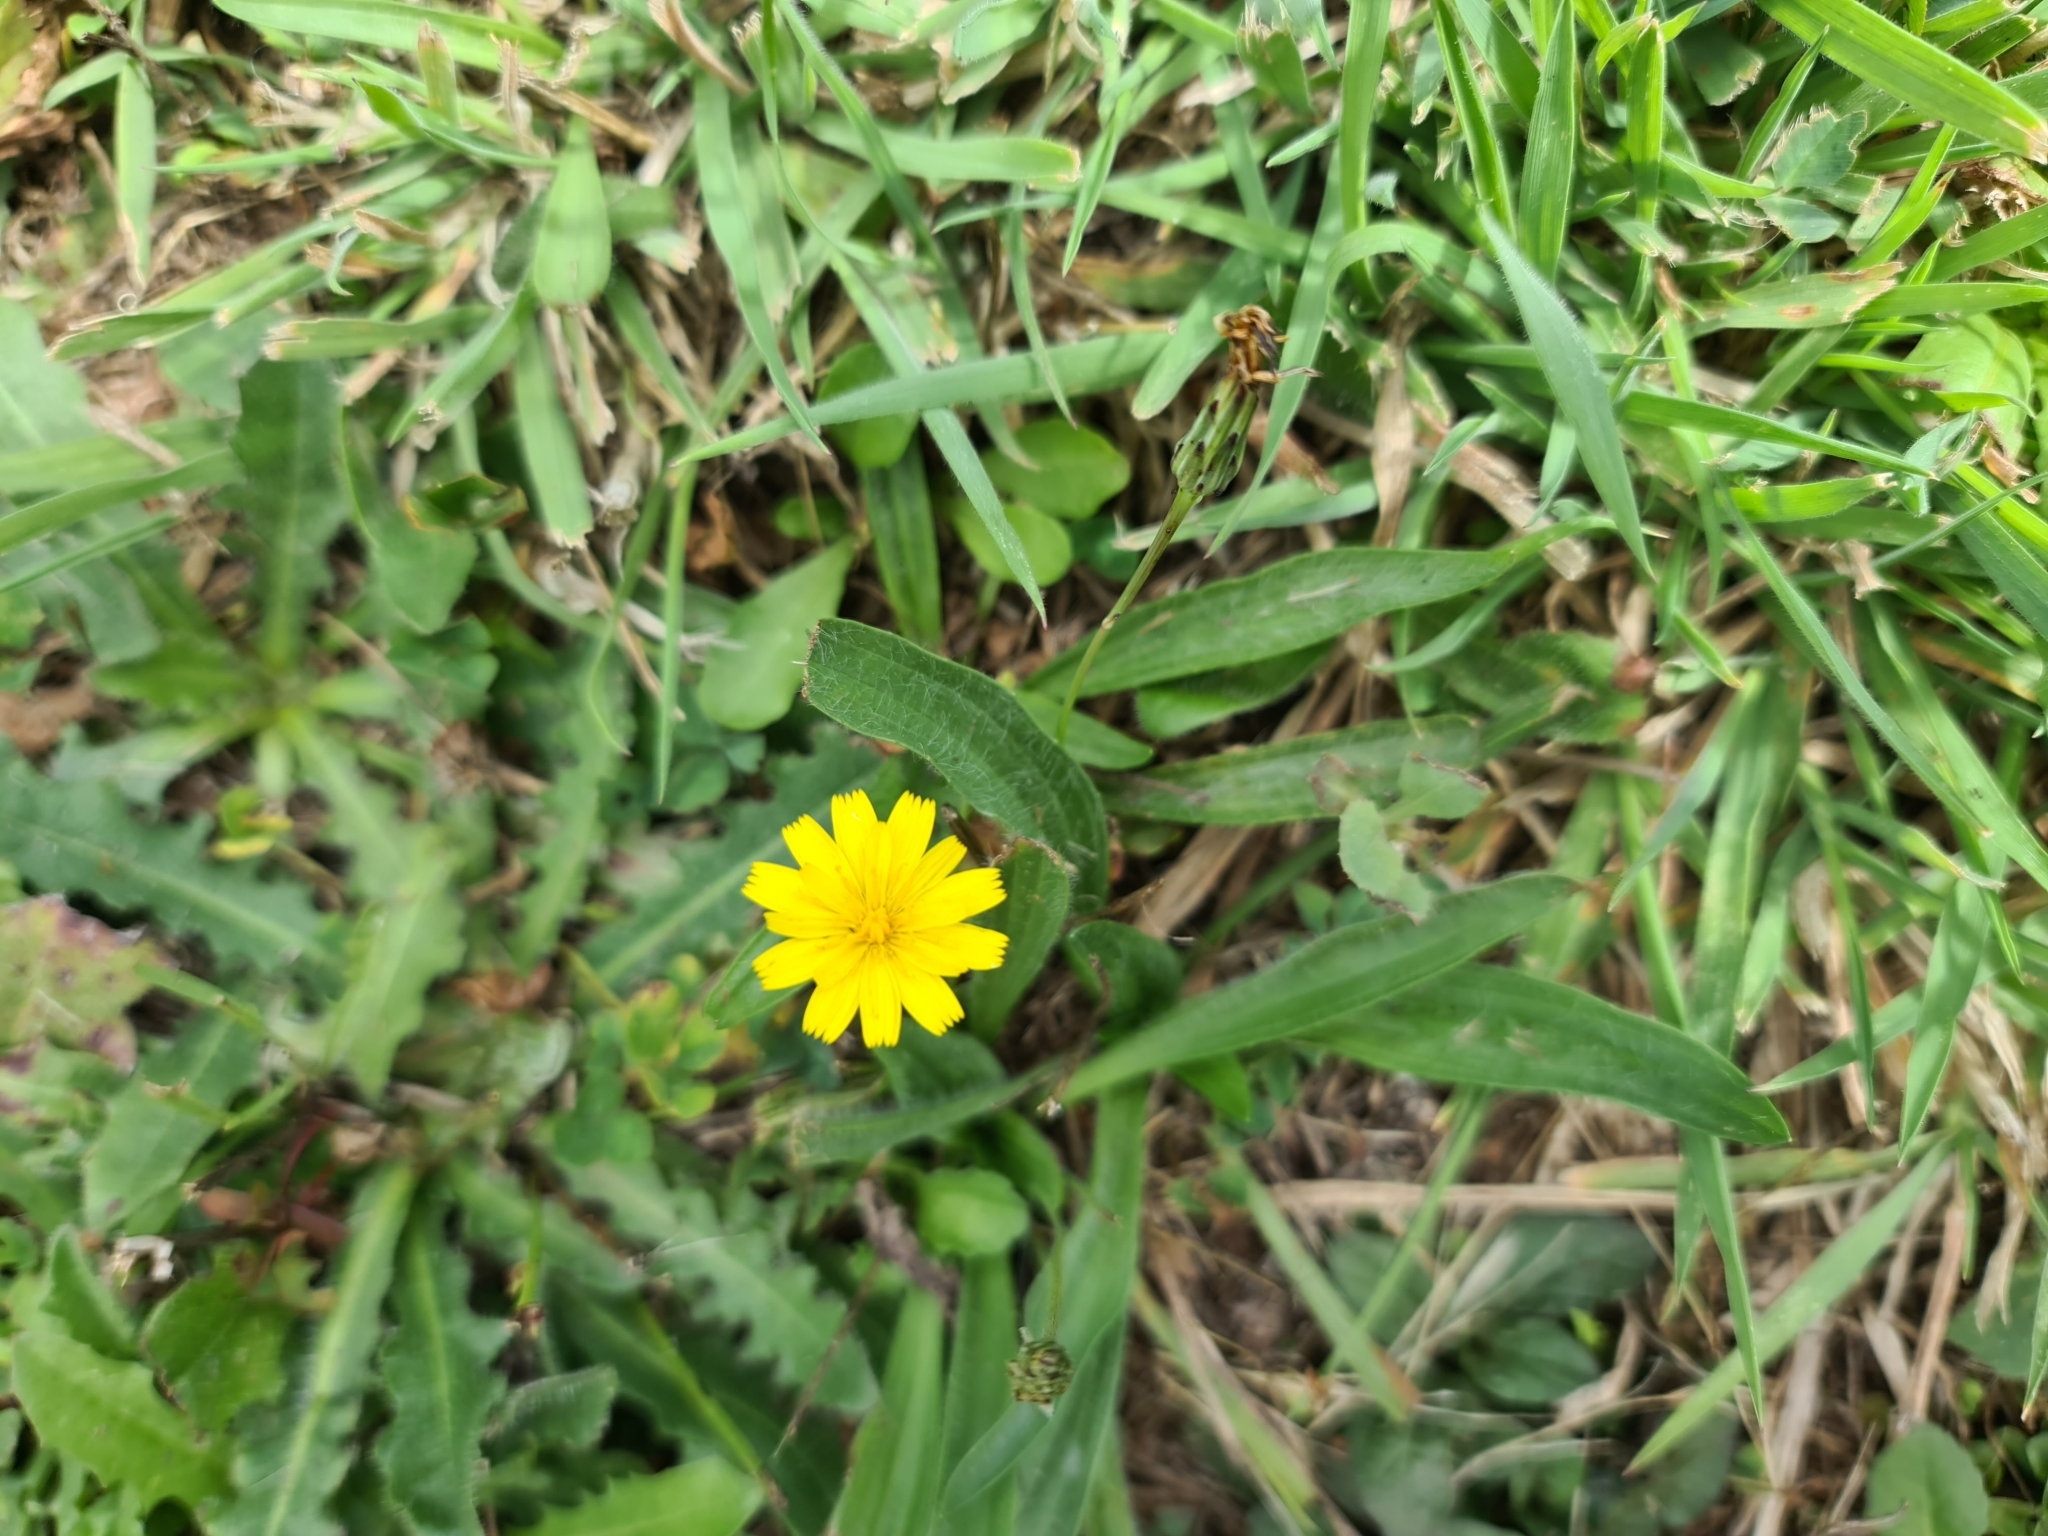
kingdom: Plantae
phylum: Tracheophyta
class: Magnoliopsida
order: Asterales
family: Asteraceae
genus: Hypochaeris
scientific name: Hypochaeris radicata
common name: Flatweed
